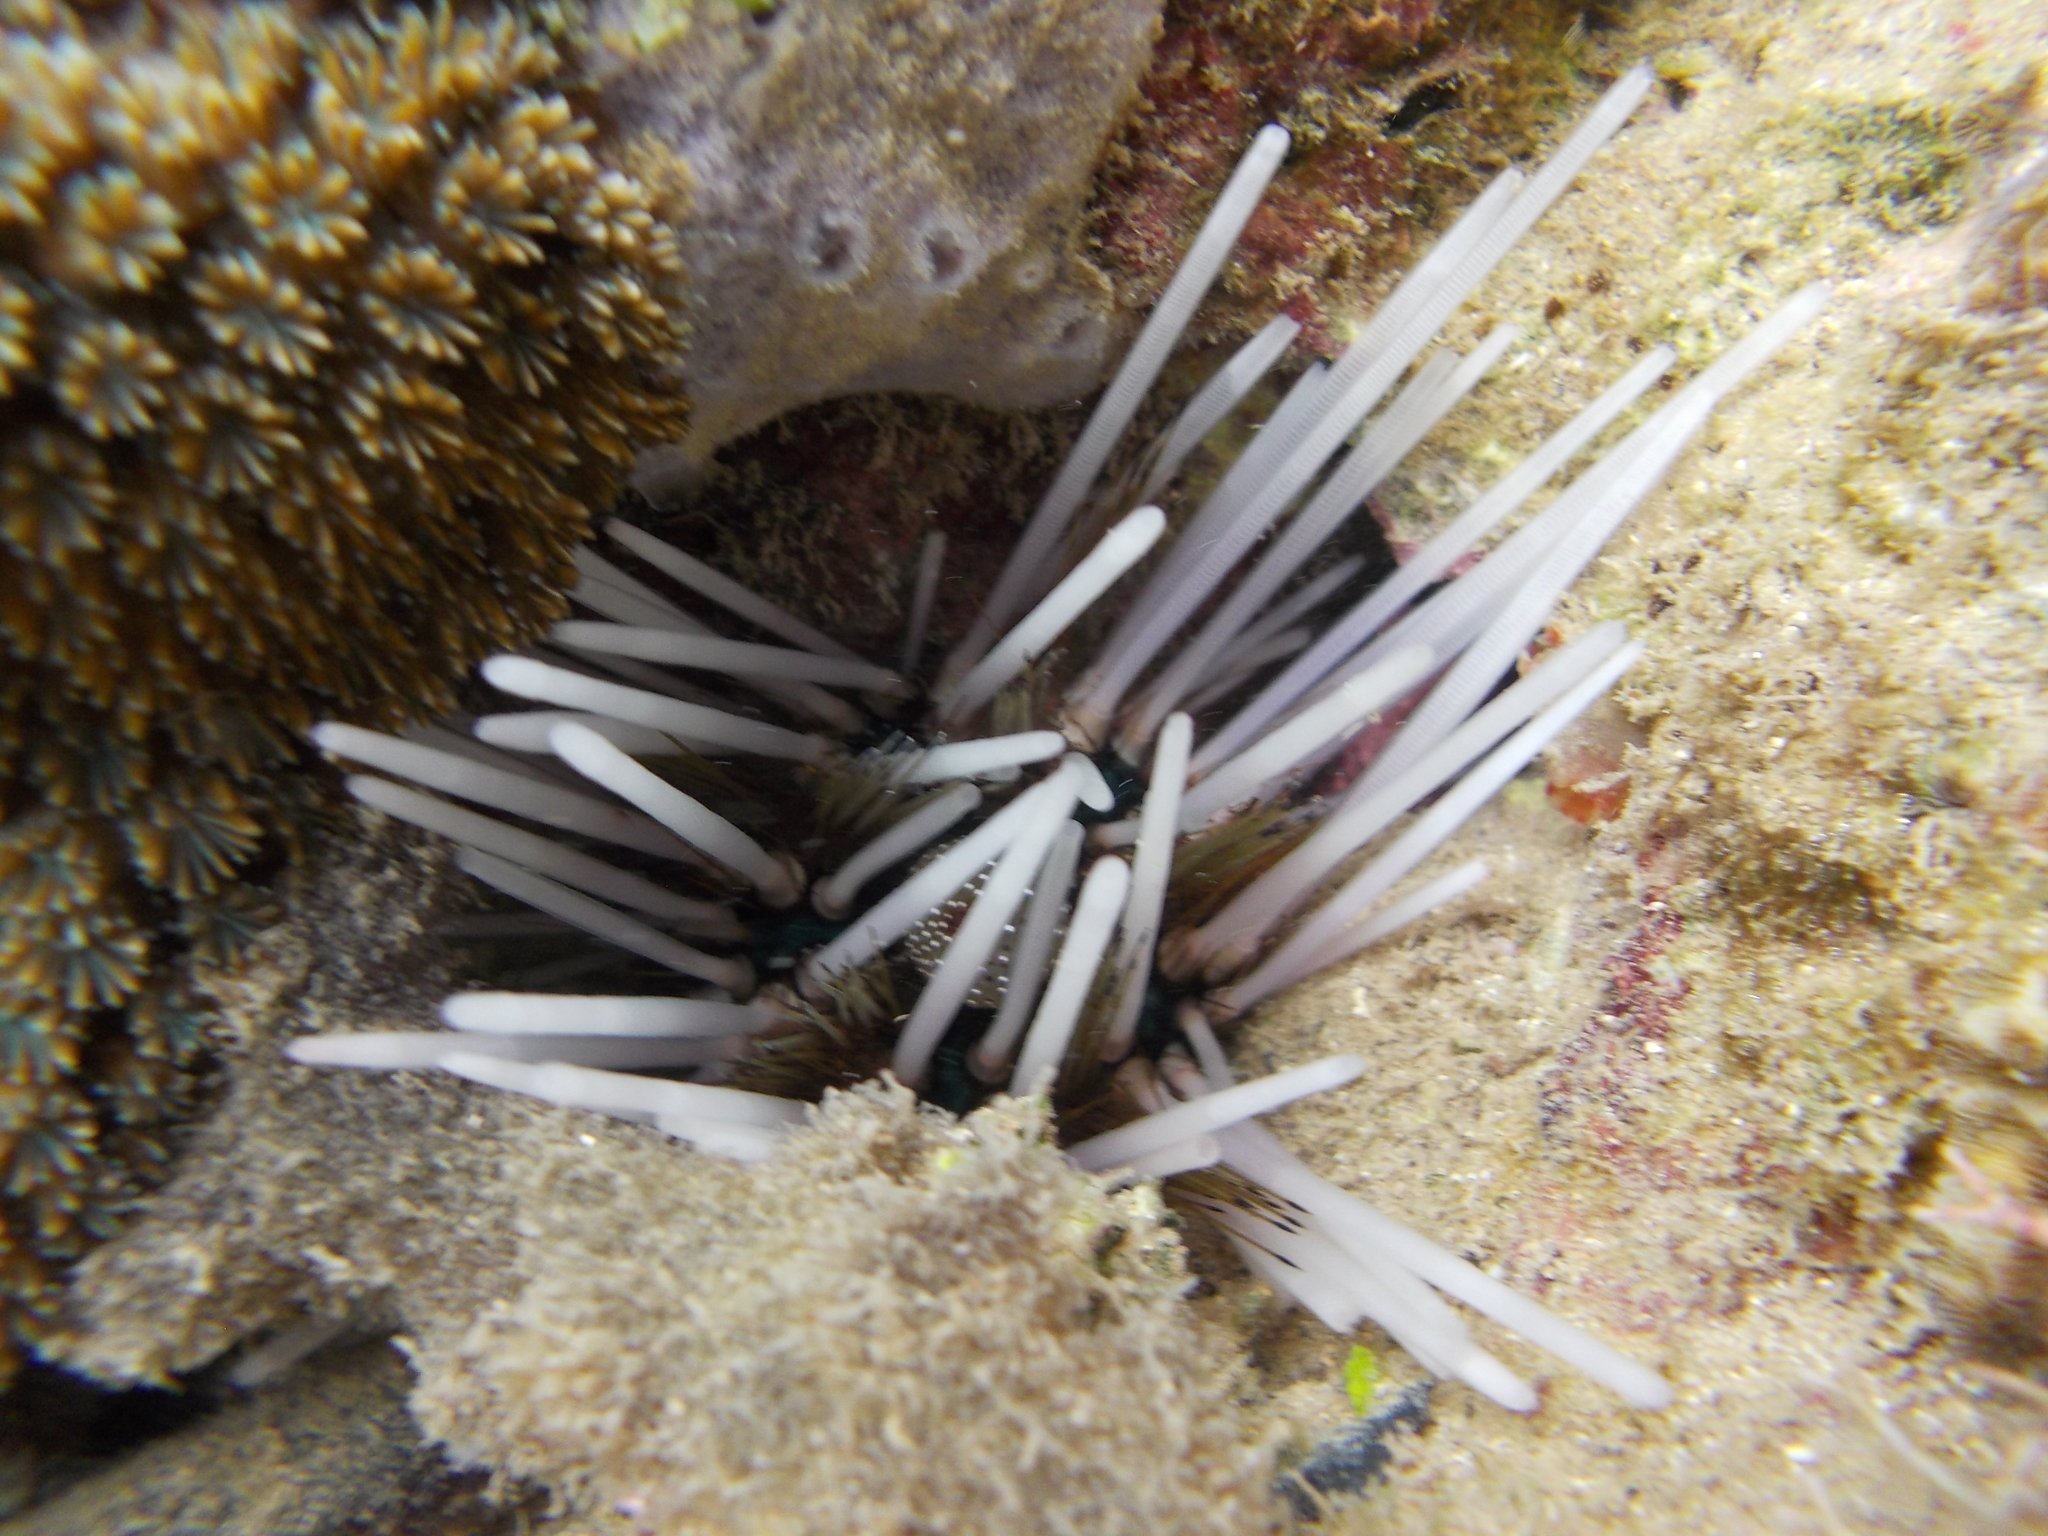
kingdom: Animalia
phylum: Echinodermata
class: Echinoidea
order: Diadematoida
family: Diadematidae
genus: Echinothrix
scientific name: Echinothrix calamaris
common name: Banded sea urchin
